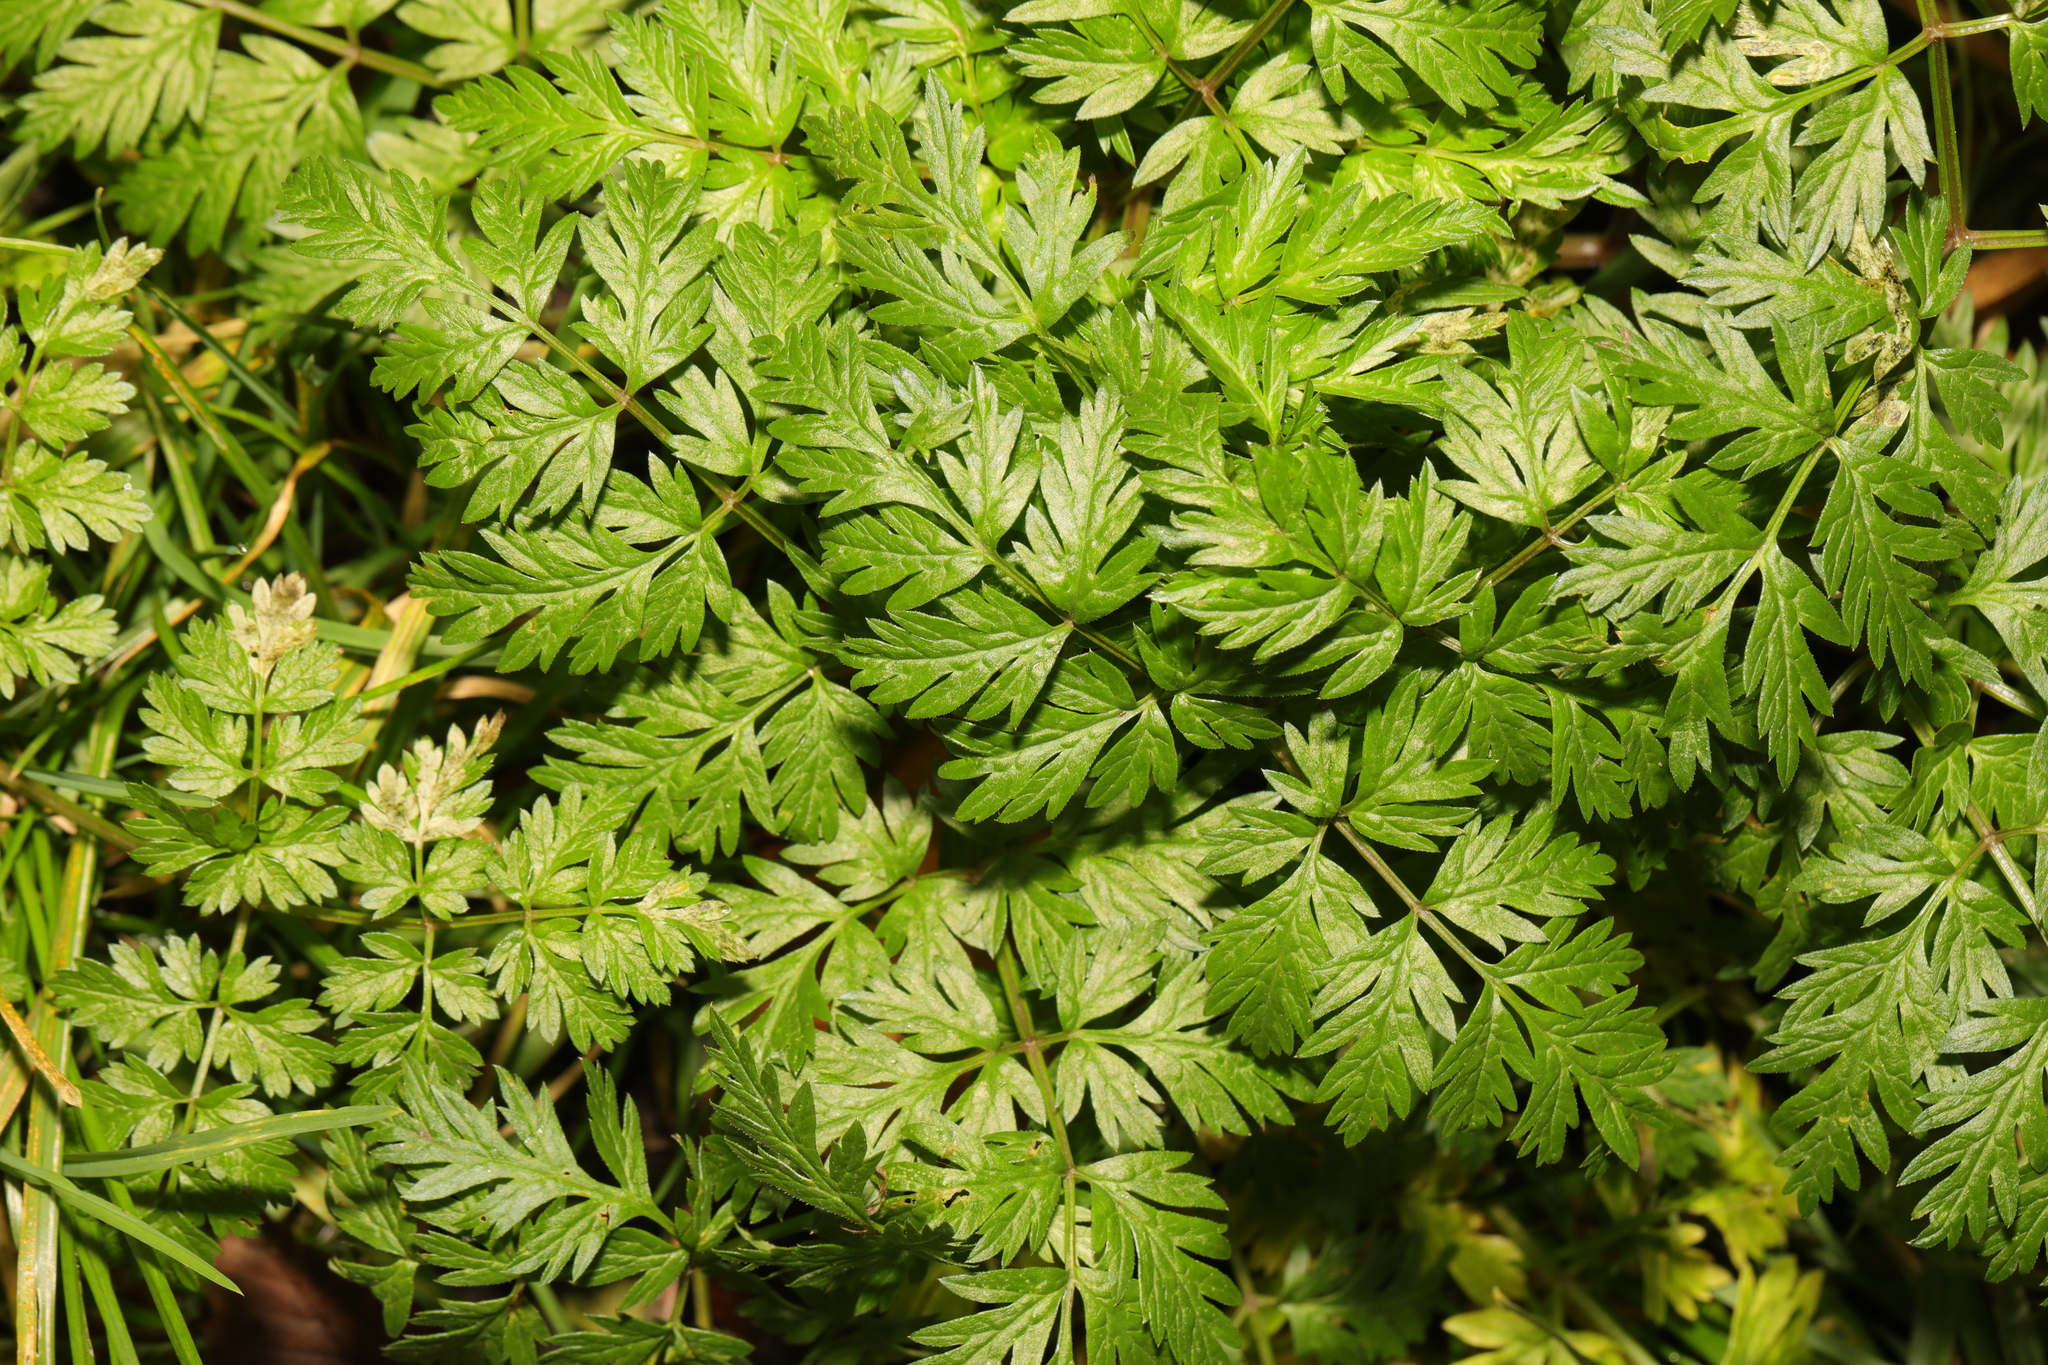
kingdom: Plantae
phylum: Tracheophyta
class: Magnoliopsida
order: Apiales
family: Apiaceae
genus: Anthriscus
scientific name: Anthriscus sylvestris
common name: Cow parsley
